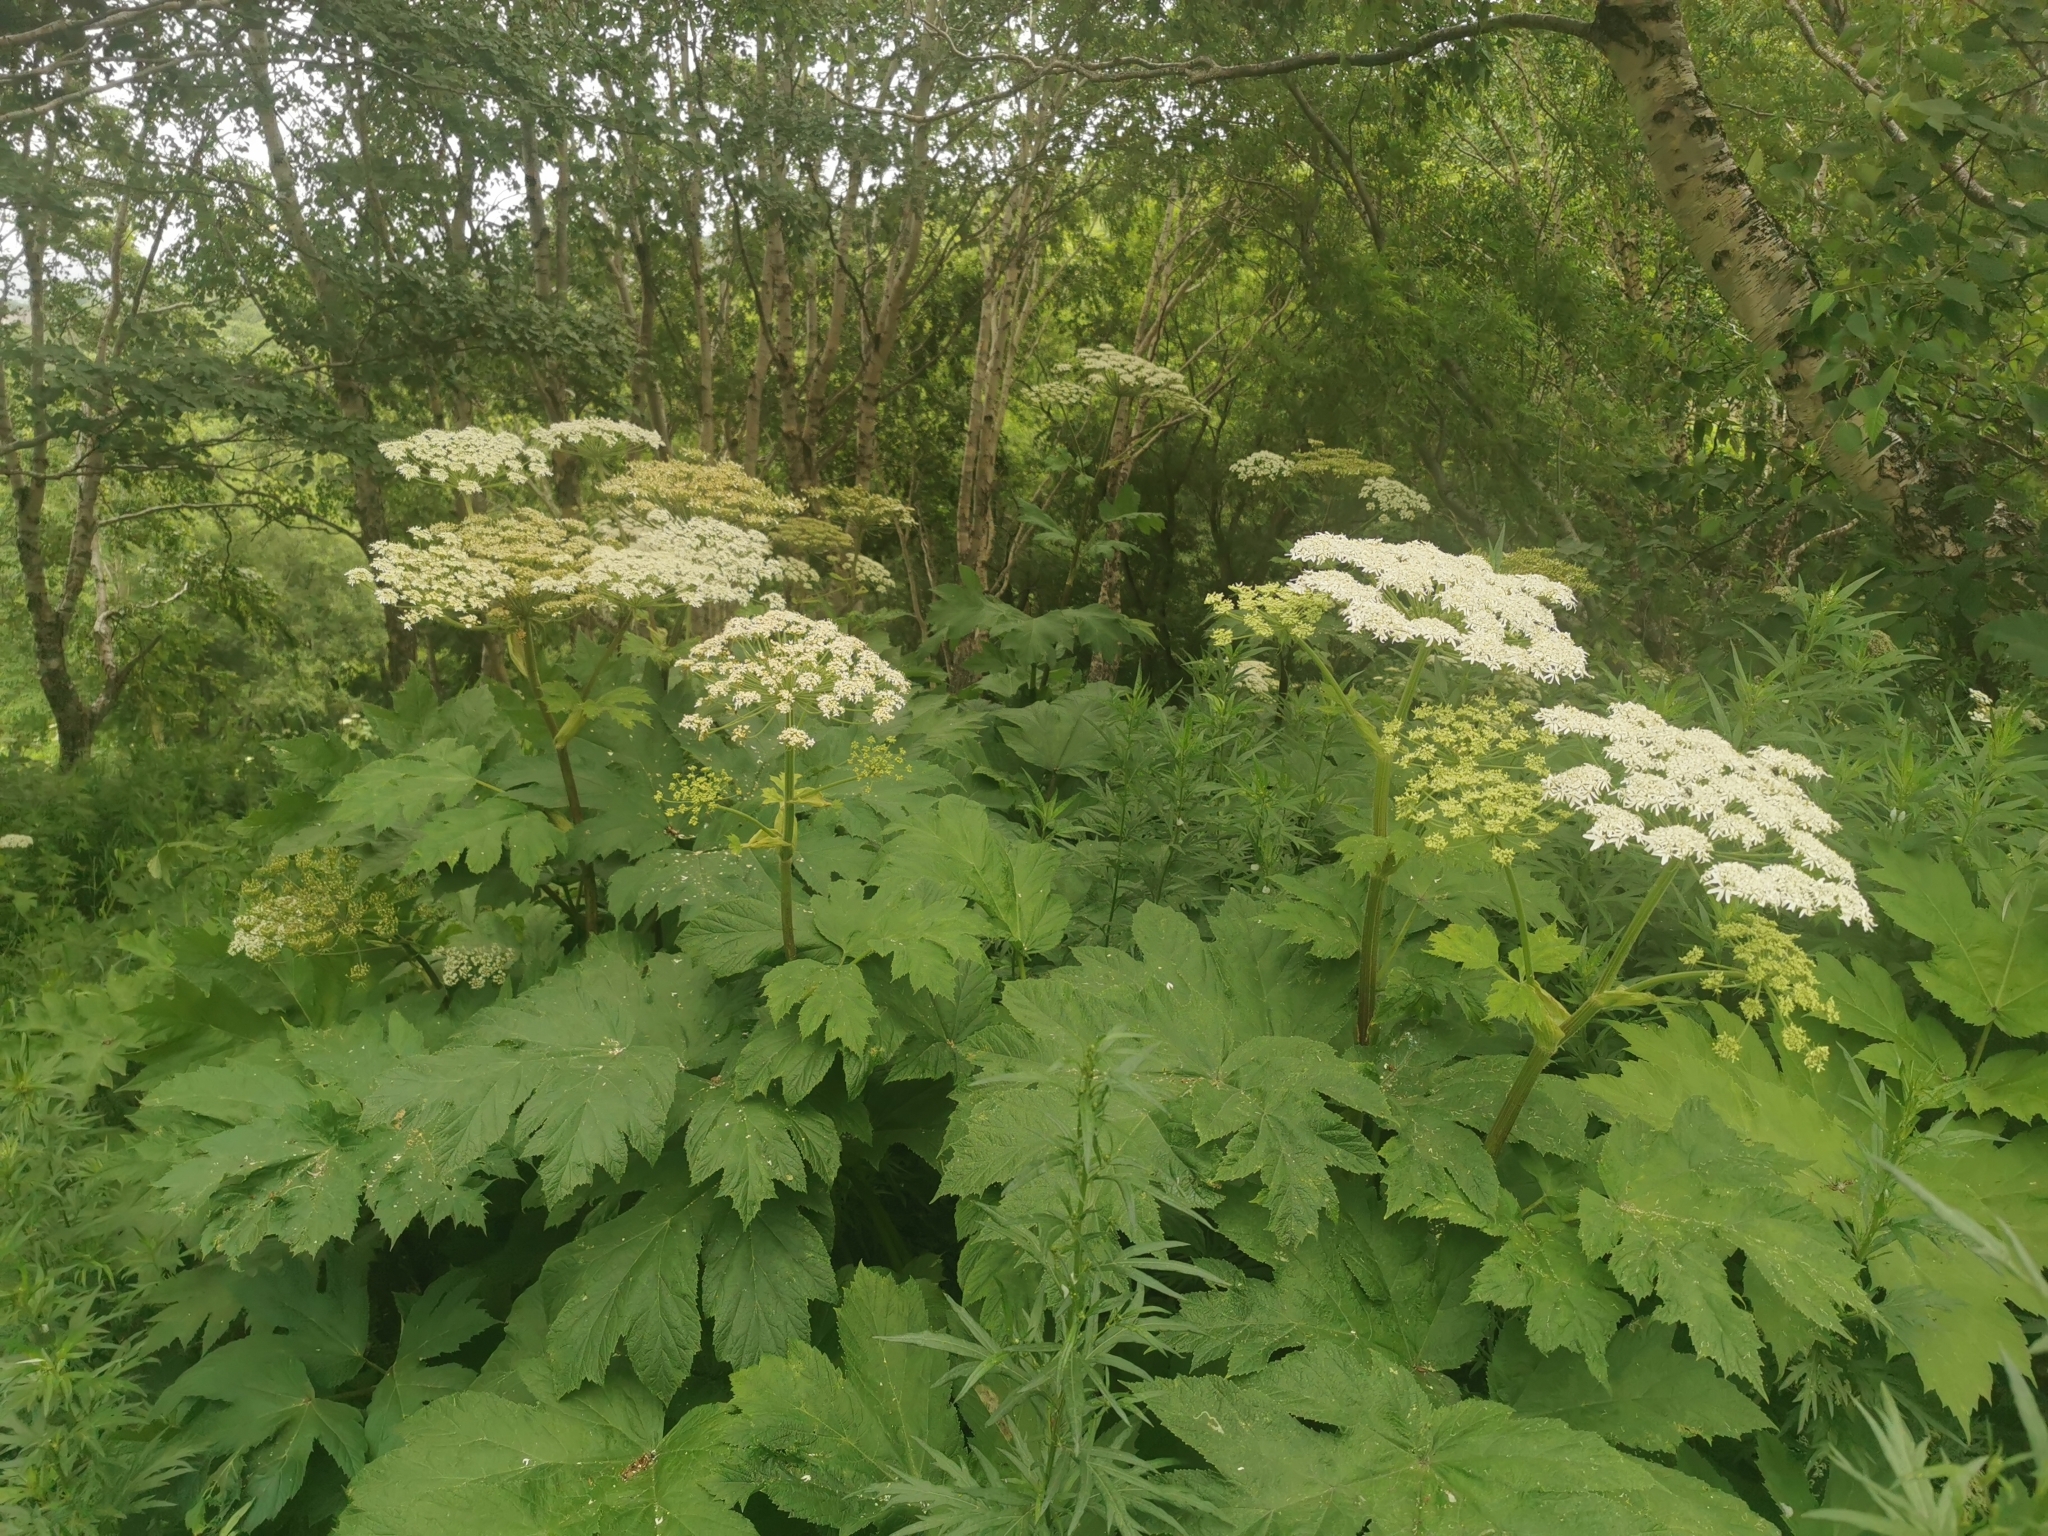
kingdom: Plantae
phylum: Tracheophyta
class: Magnoliopsida
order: Apiales
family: Apiaceae
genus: Heracleum
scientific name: Heracleum maximum
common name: American cow parsnip
